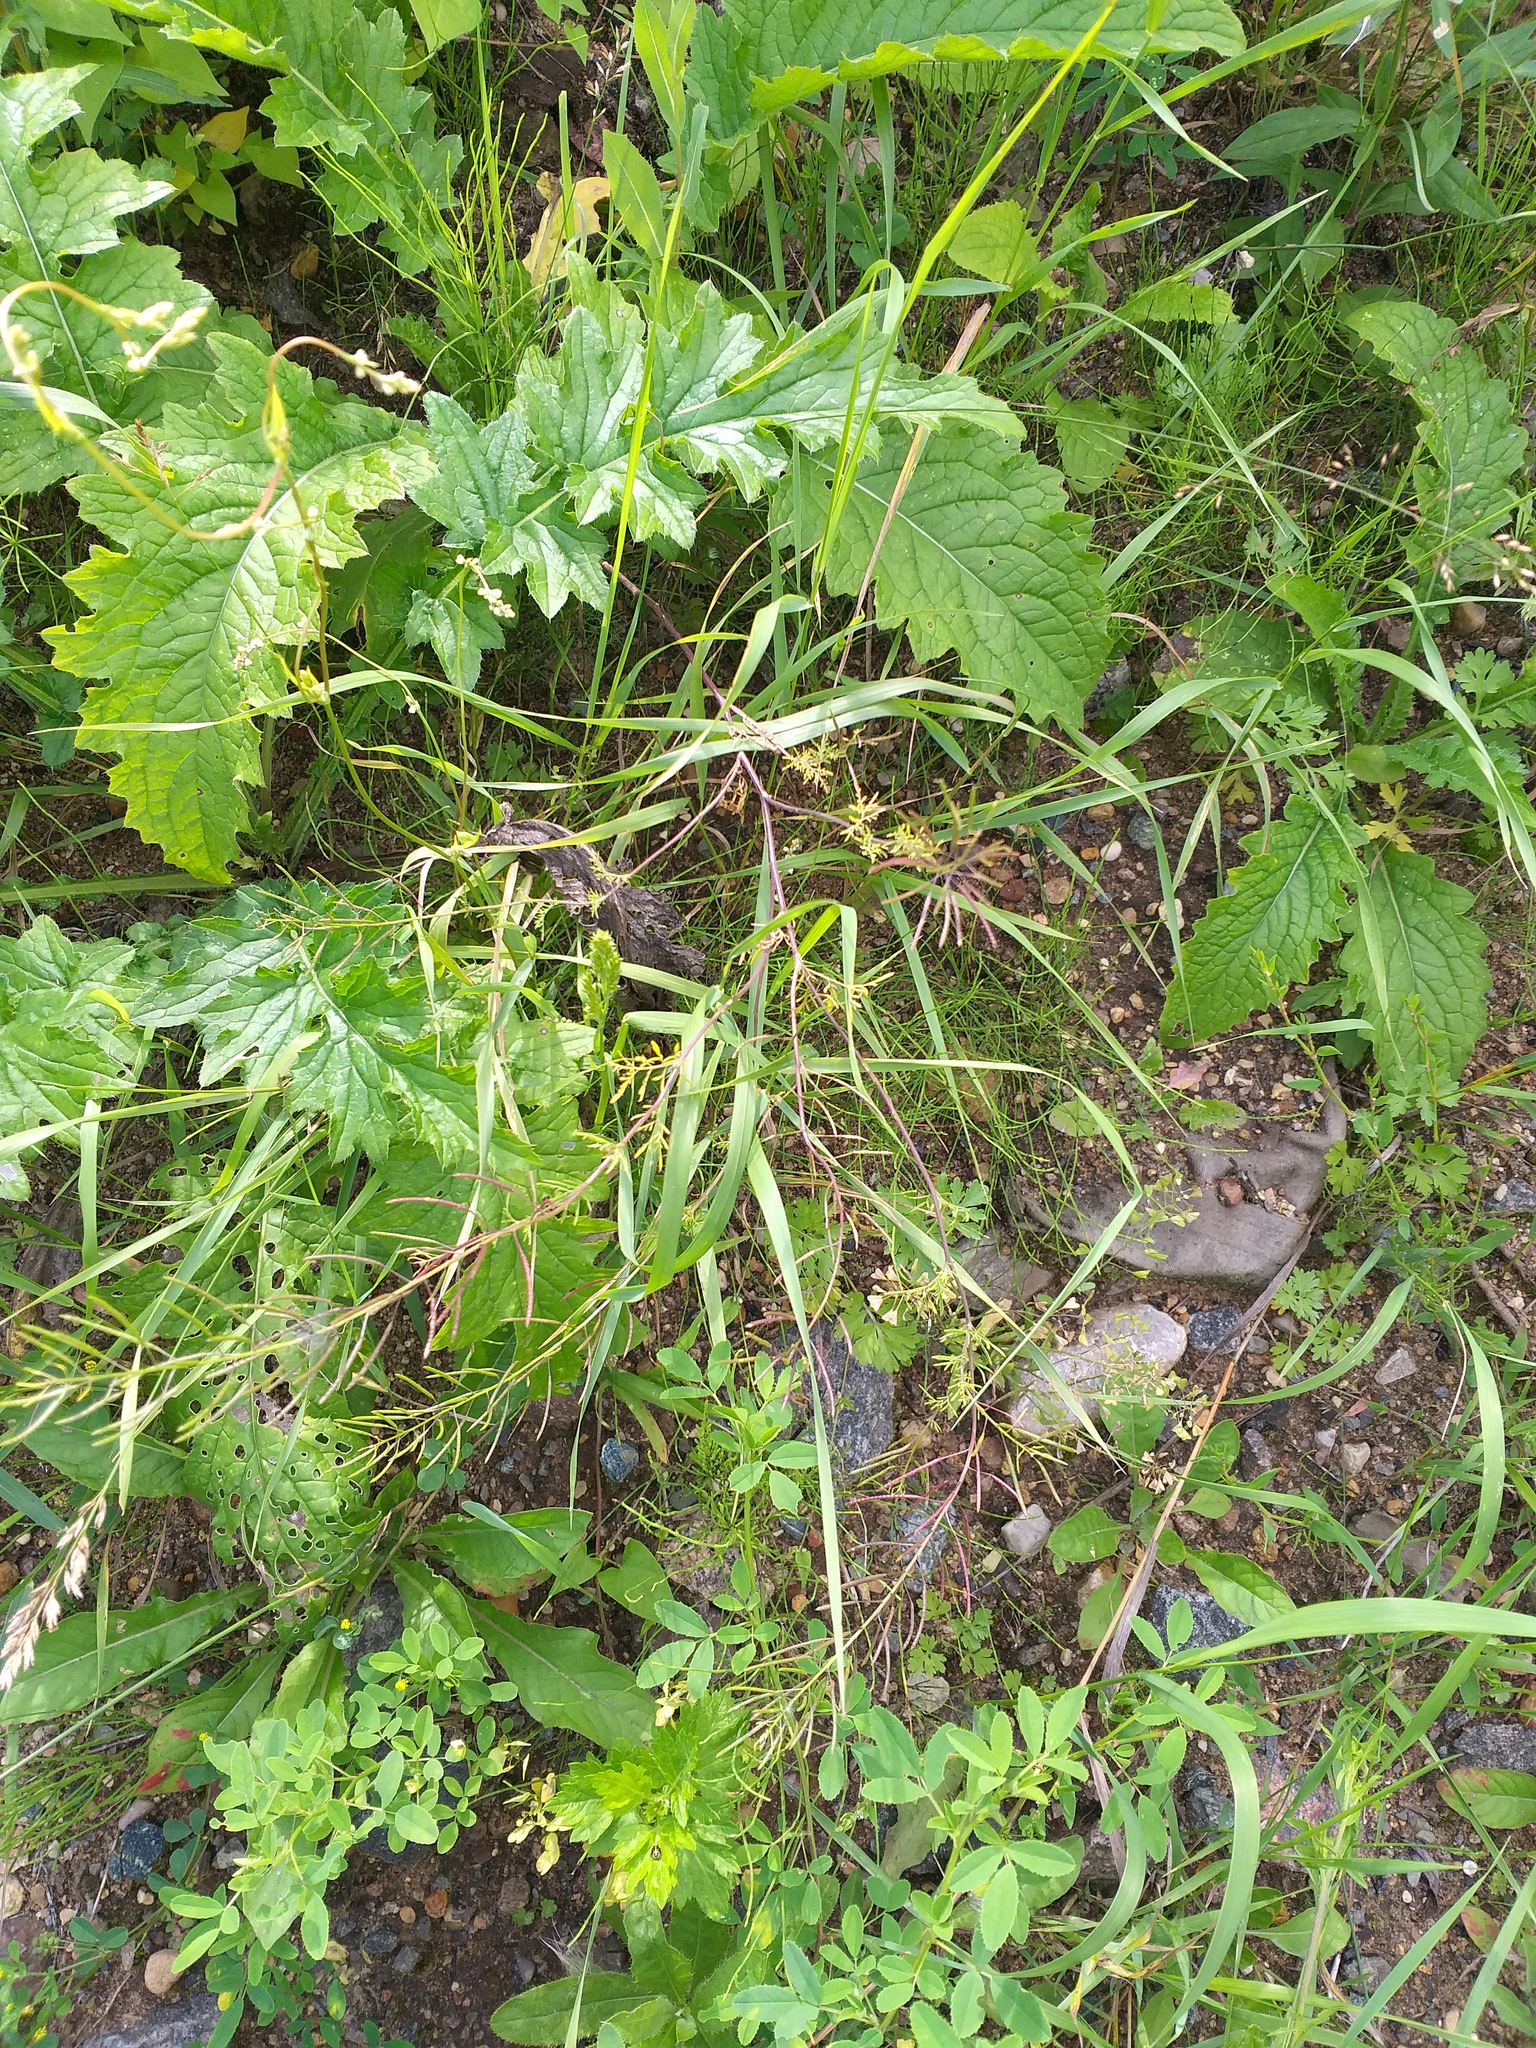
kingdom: Plantae
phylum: Tracheophyta
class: Magnoliopsida
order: Brassicales
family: Brassicaceae
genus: Descurainia
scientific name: Descurainia sophia
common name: Flixweed
